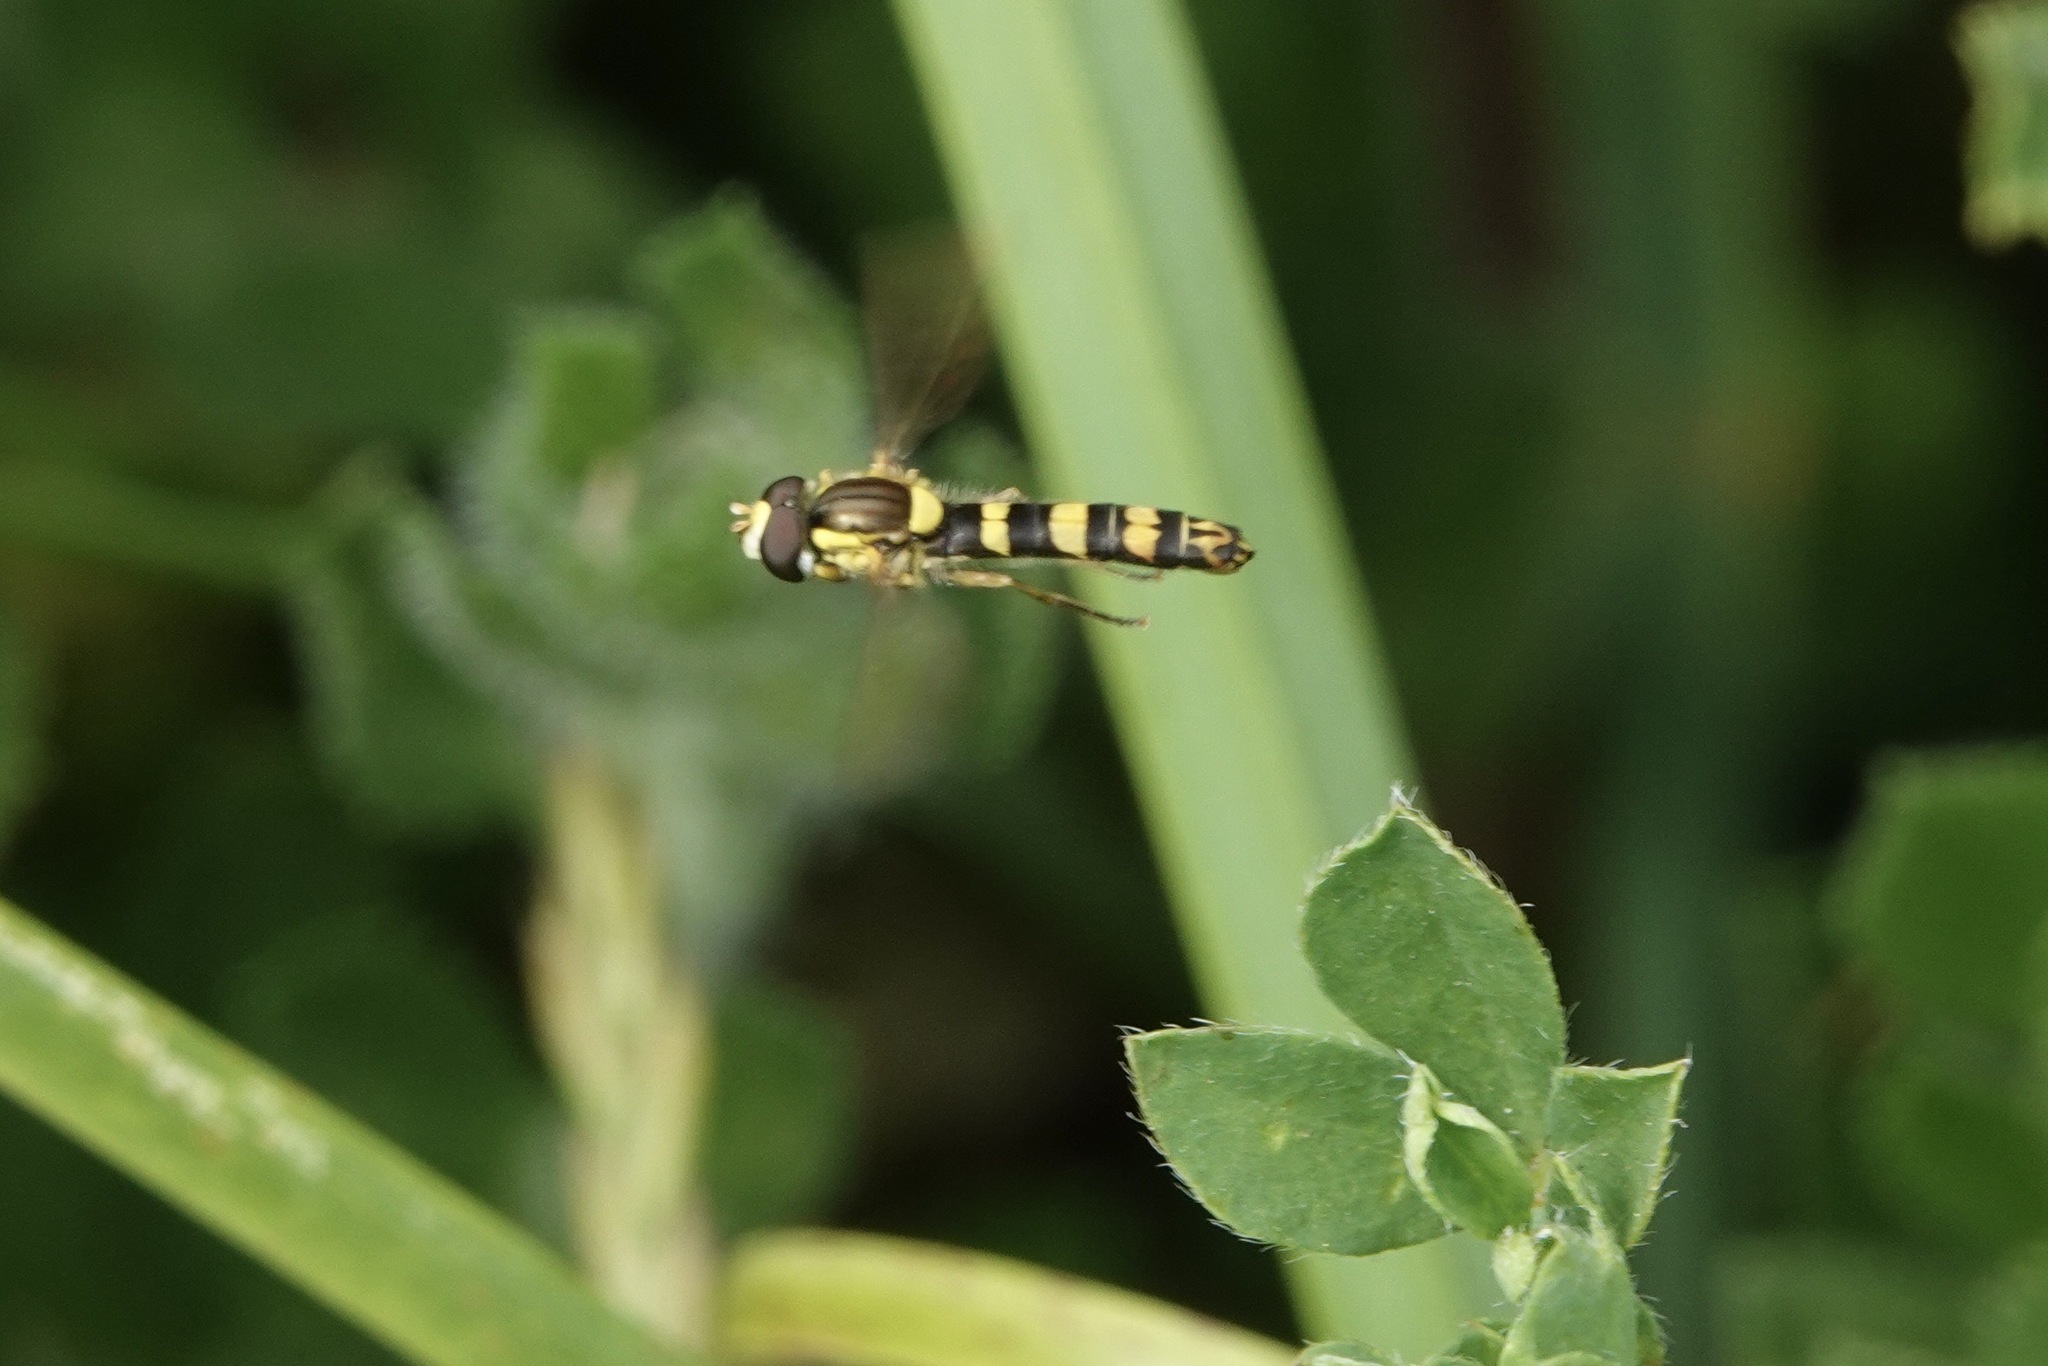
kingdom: Animalia
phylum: Arthropoda
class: Insecta
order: Diptera
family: Syrphidae
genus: Sphaerophoria
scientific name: Sphaerophoria scripta
